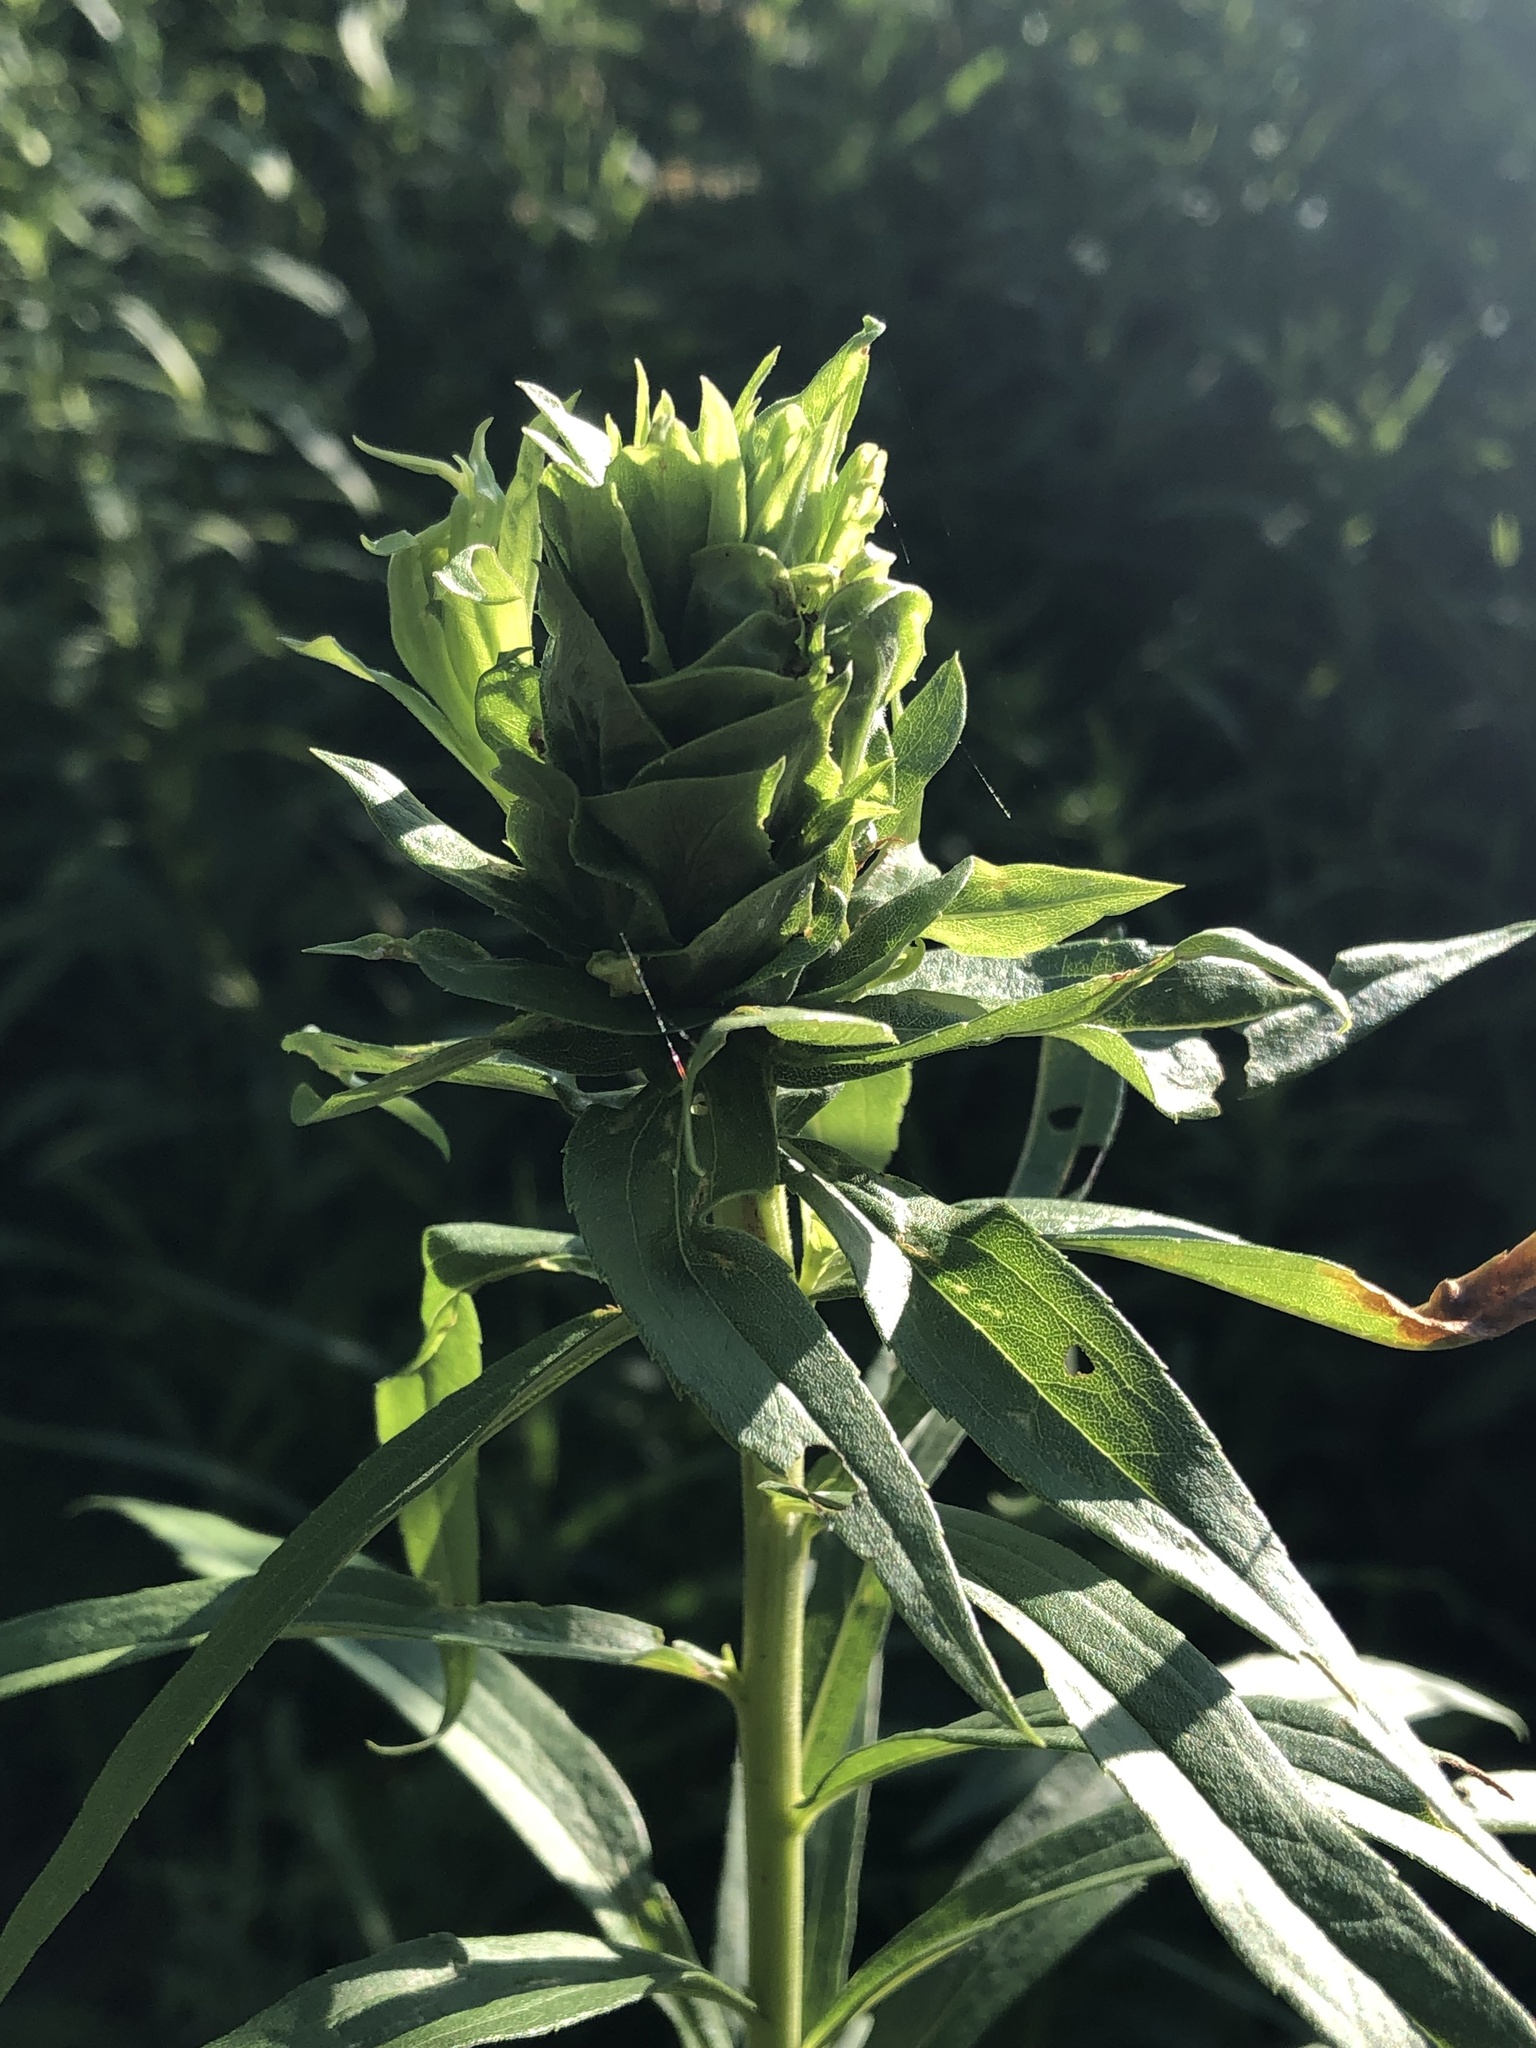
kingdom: Animalia
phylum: Arthropoda
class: Insecta
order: Diptera
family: Cecidomyiidae
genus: Rhopalomyia
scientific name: Rhopalomyia solidaginis
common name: Goldenrod bunch gall midge
